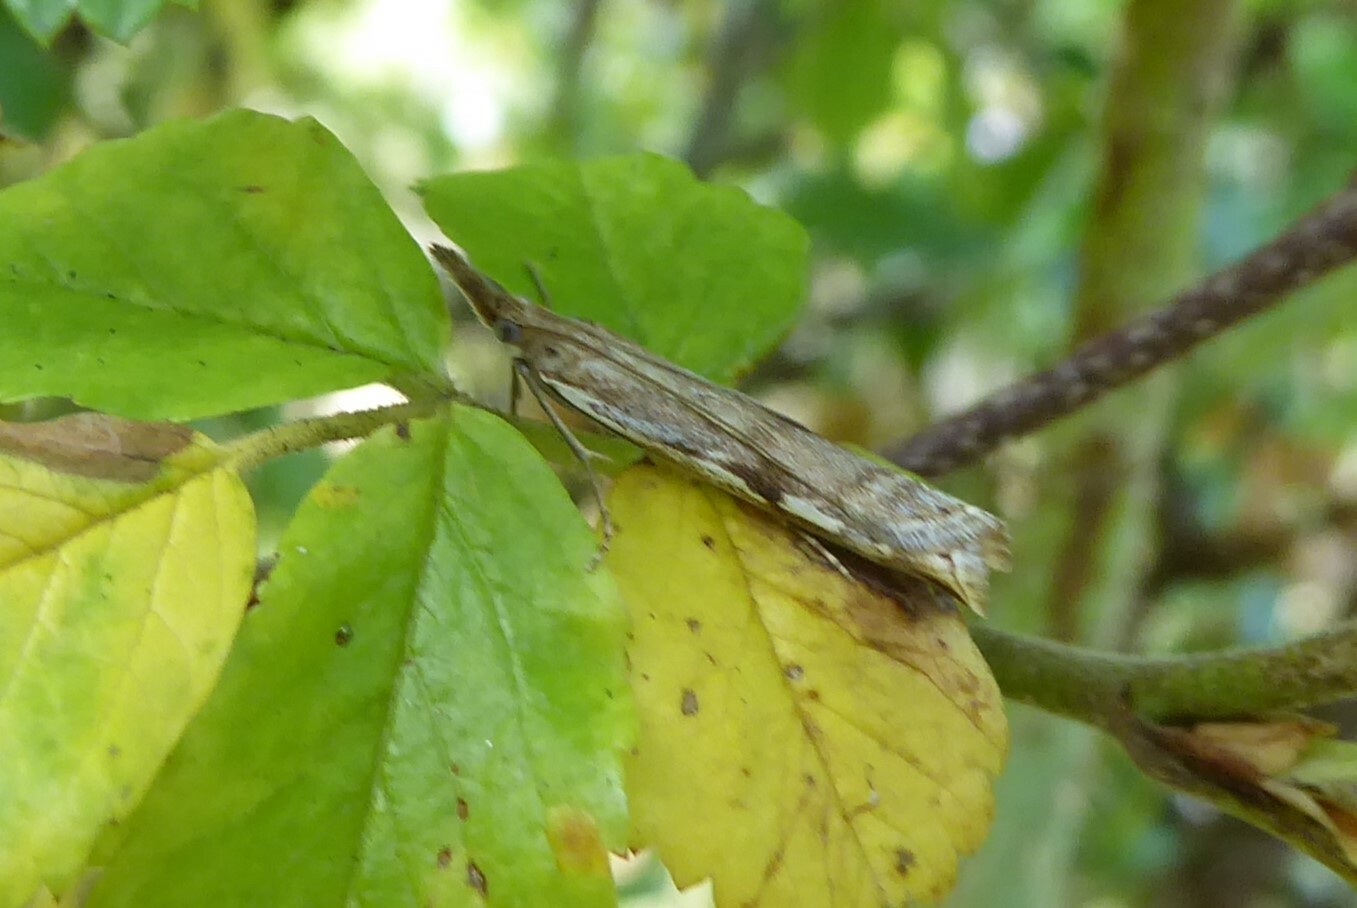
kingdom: Animalia
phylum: Arthropoda
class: Insecta
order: Lepidoptera
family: Crambidae
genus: Orocrambus
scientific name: Orocrambus vulgaris
